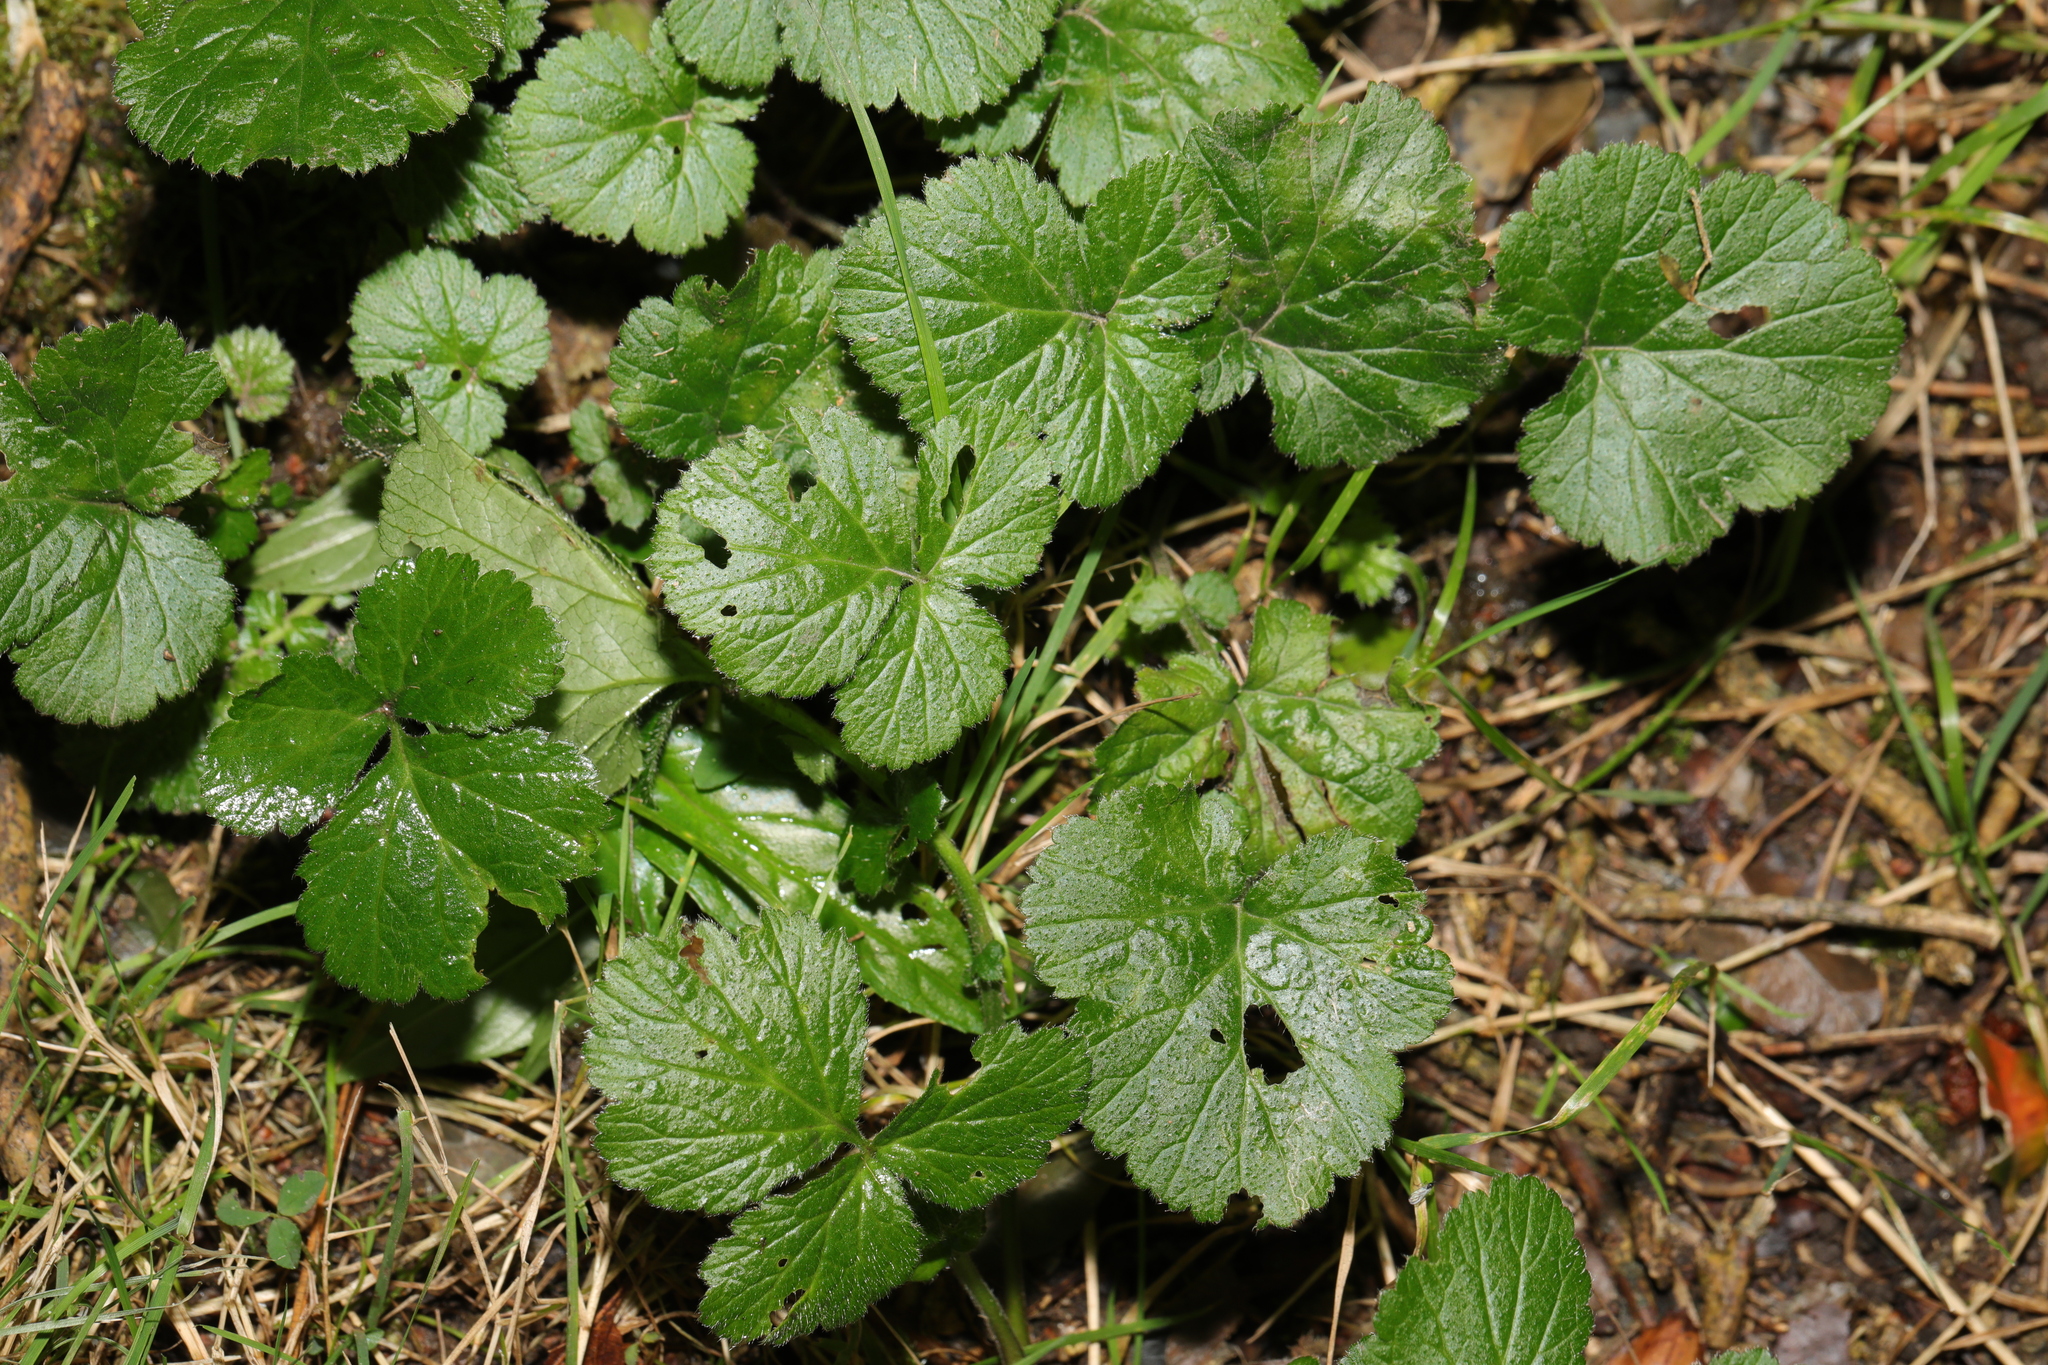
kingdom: Plantae
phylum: Tracheophyta
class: Magnoliopsida
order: Rosales
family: Rosaceae
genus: Geum
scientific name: Geum urbanum
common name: Wood avens
